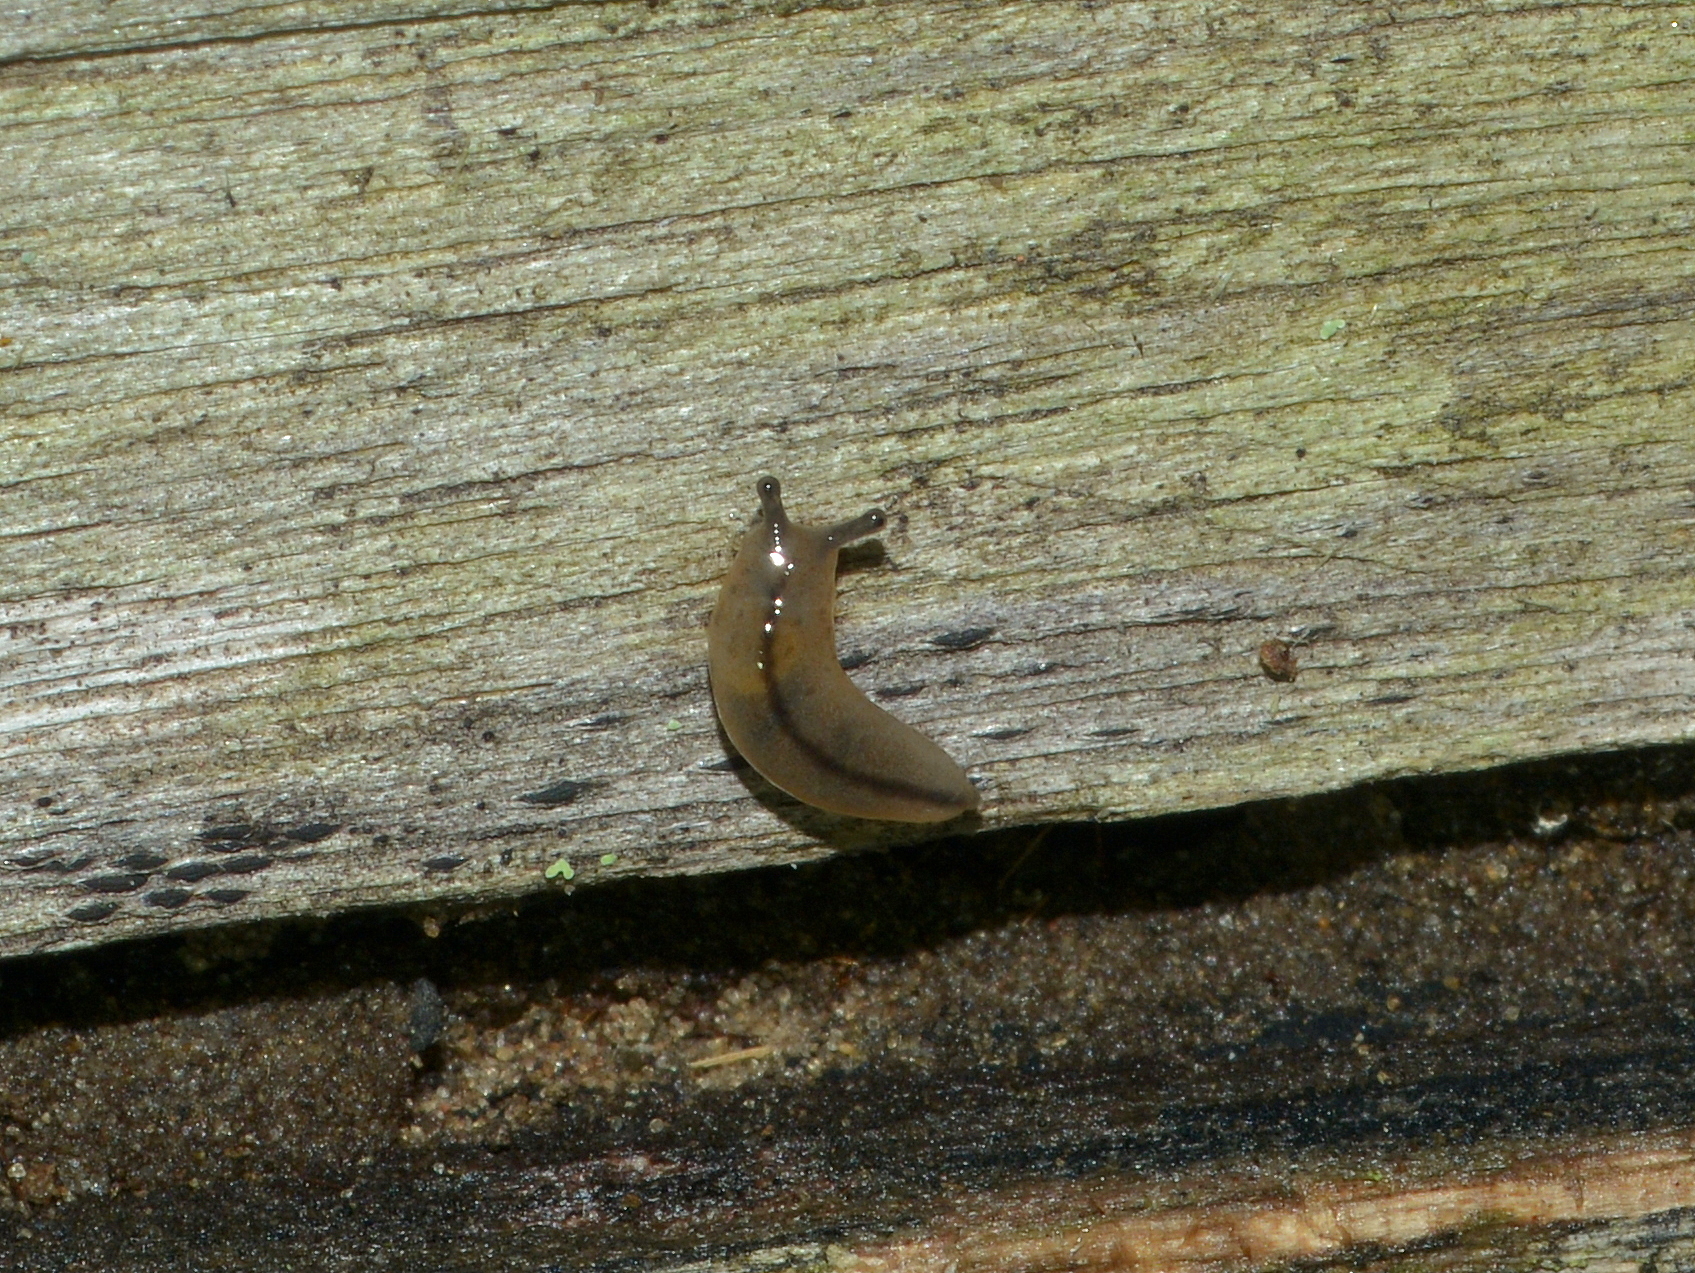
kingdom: Animalia
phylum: Mollusca
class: Gastropoda
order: Stylommatophora
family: Philomycidae
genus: Meghimatium
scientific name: Meghimatium pictum
